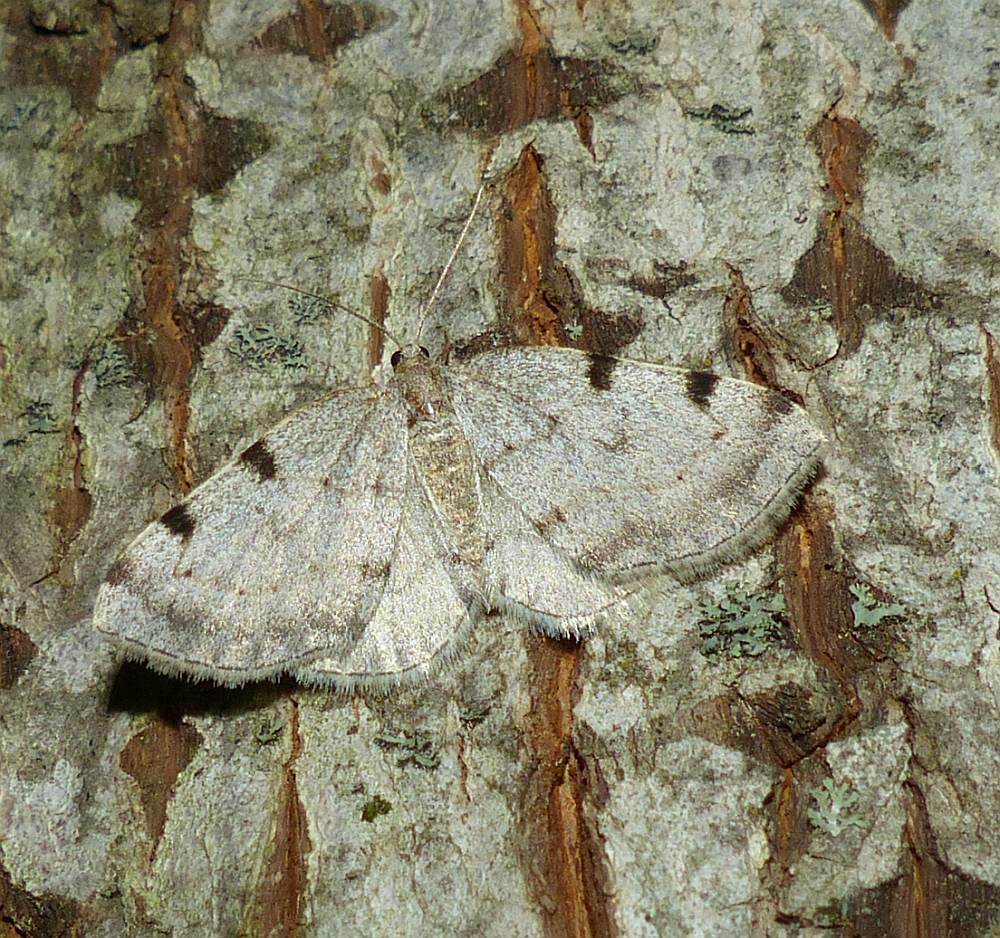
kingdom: Animalia
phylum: Arthropoda
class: Insecta
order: Lepidoptera
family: Geometridae
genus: Heterophleps
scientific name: Heterophleps refusaria
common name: Three-patched bigwing
